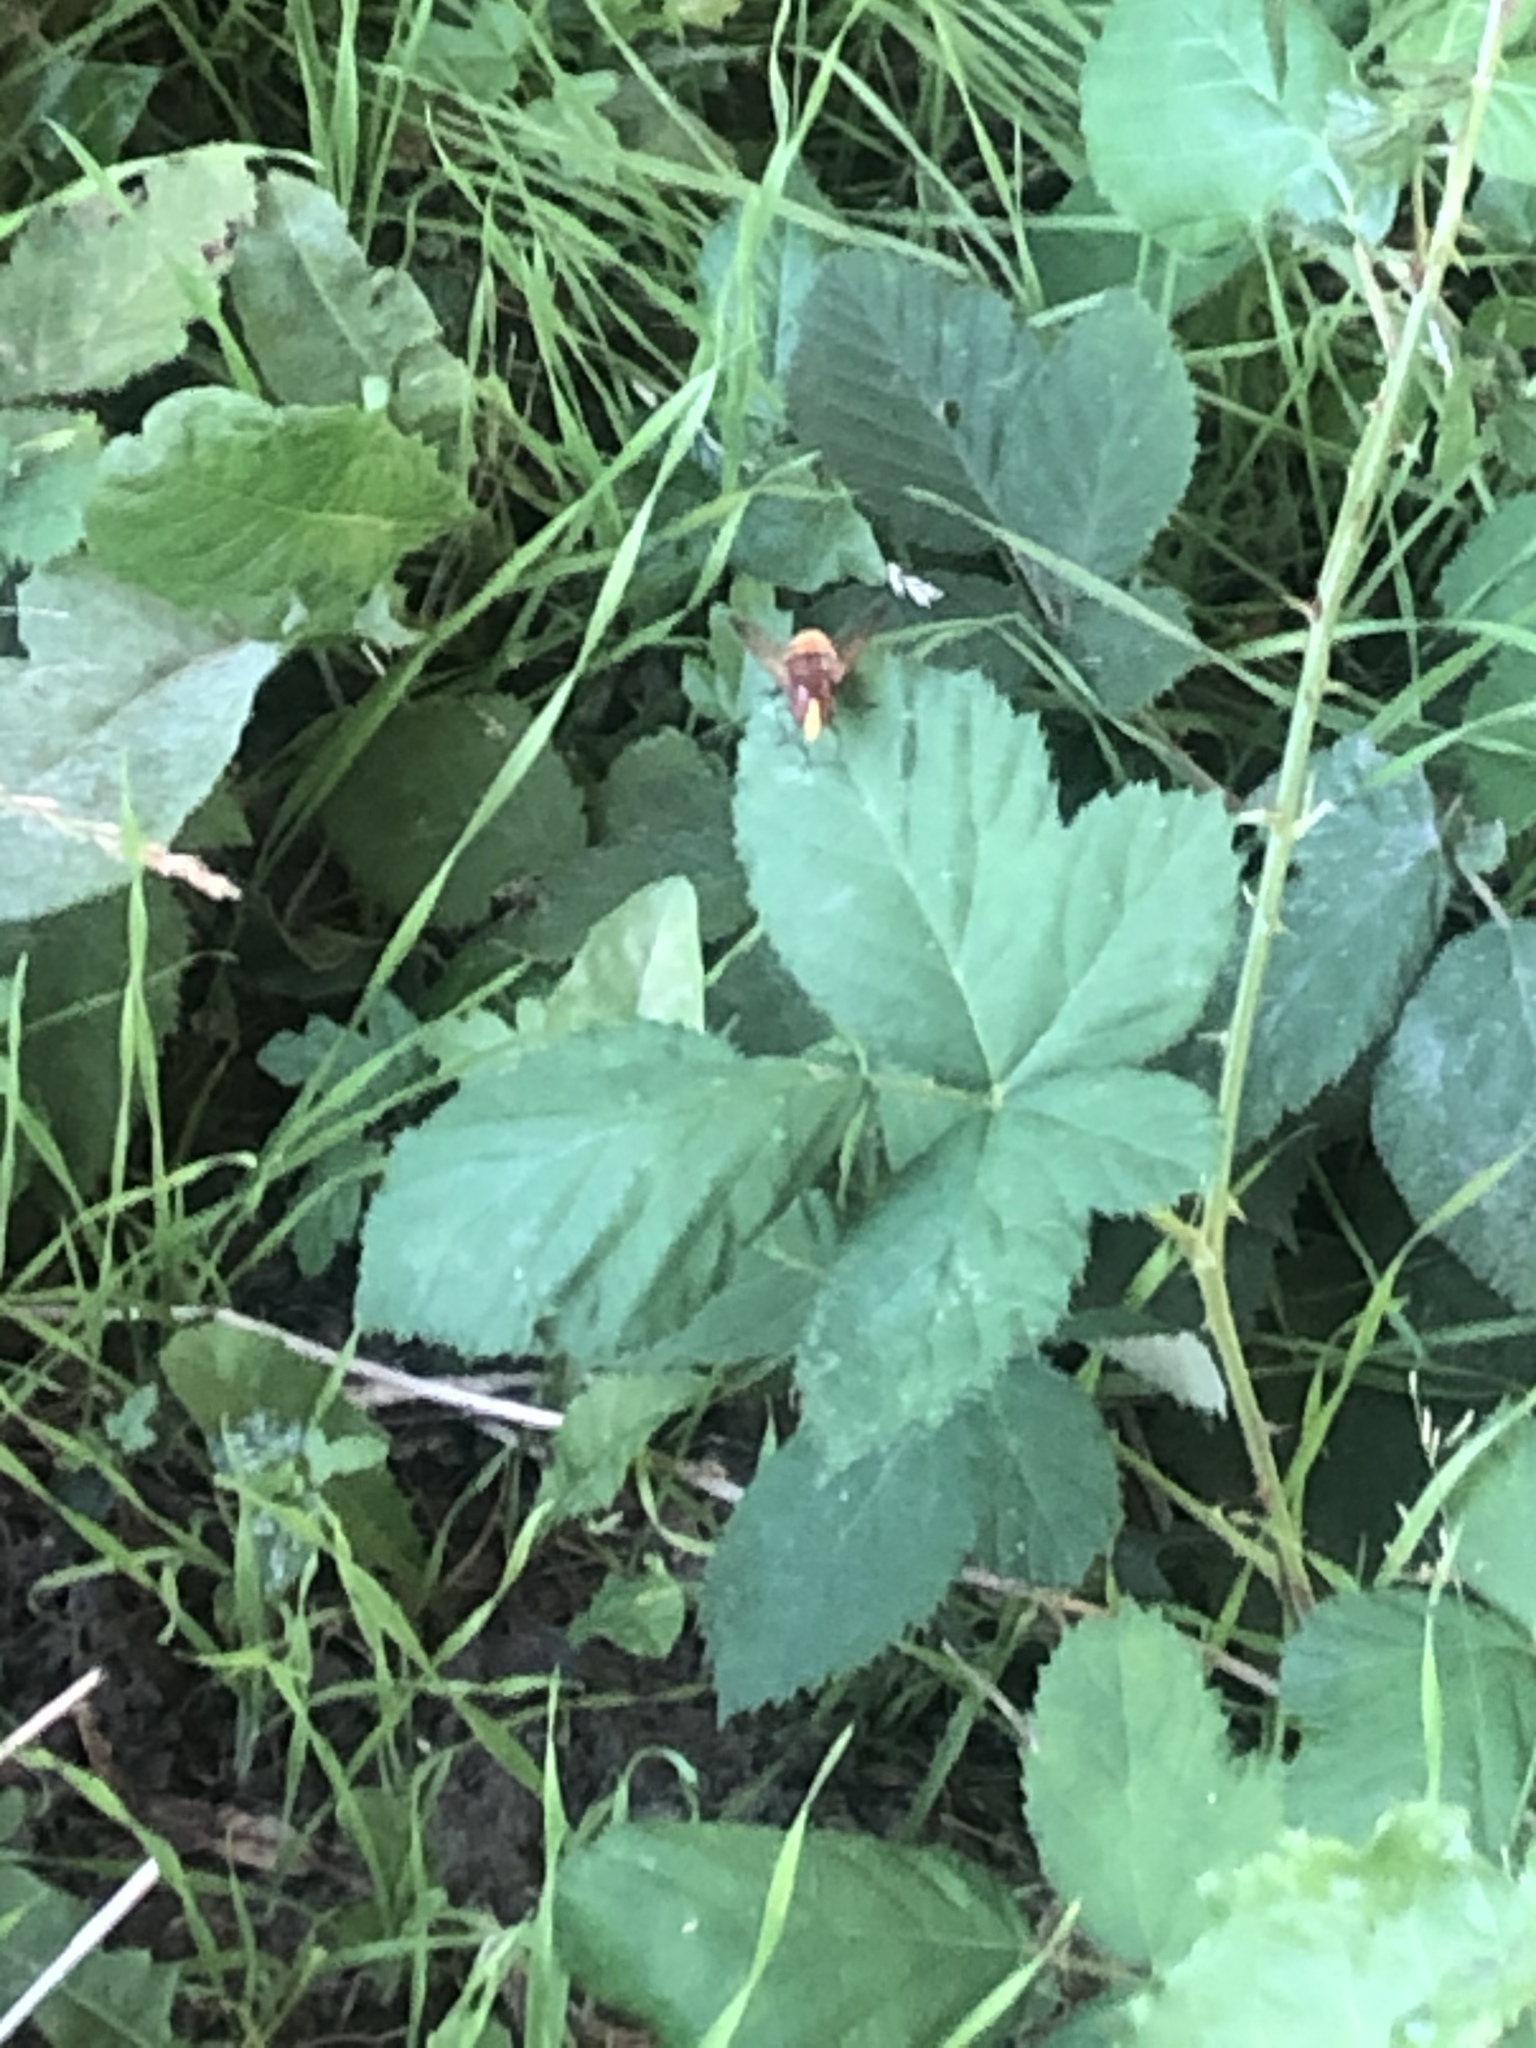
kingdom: Animalia
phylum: Arthropoda
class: Insecta
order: Diptera
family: Syrphidae
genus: Volucella
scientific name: Volucella zonaria
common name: Hornet hoverfly
